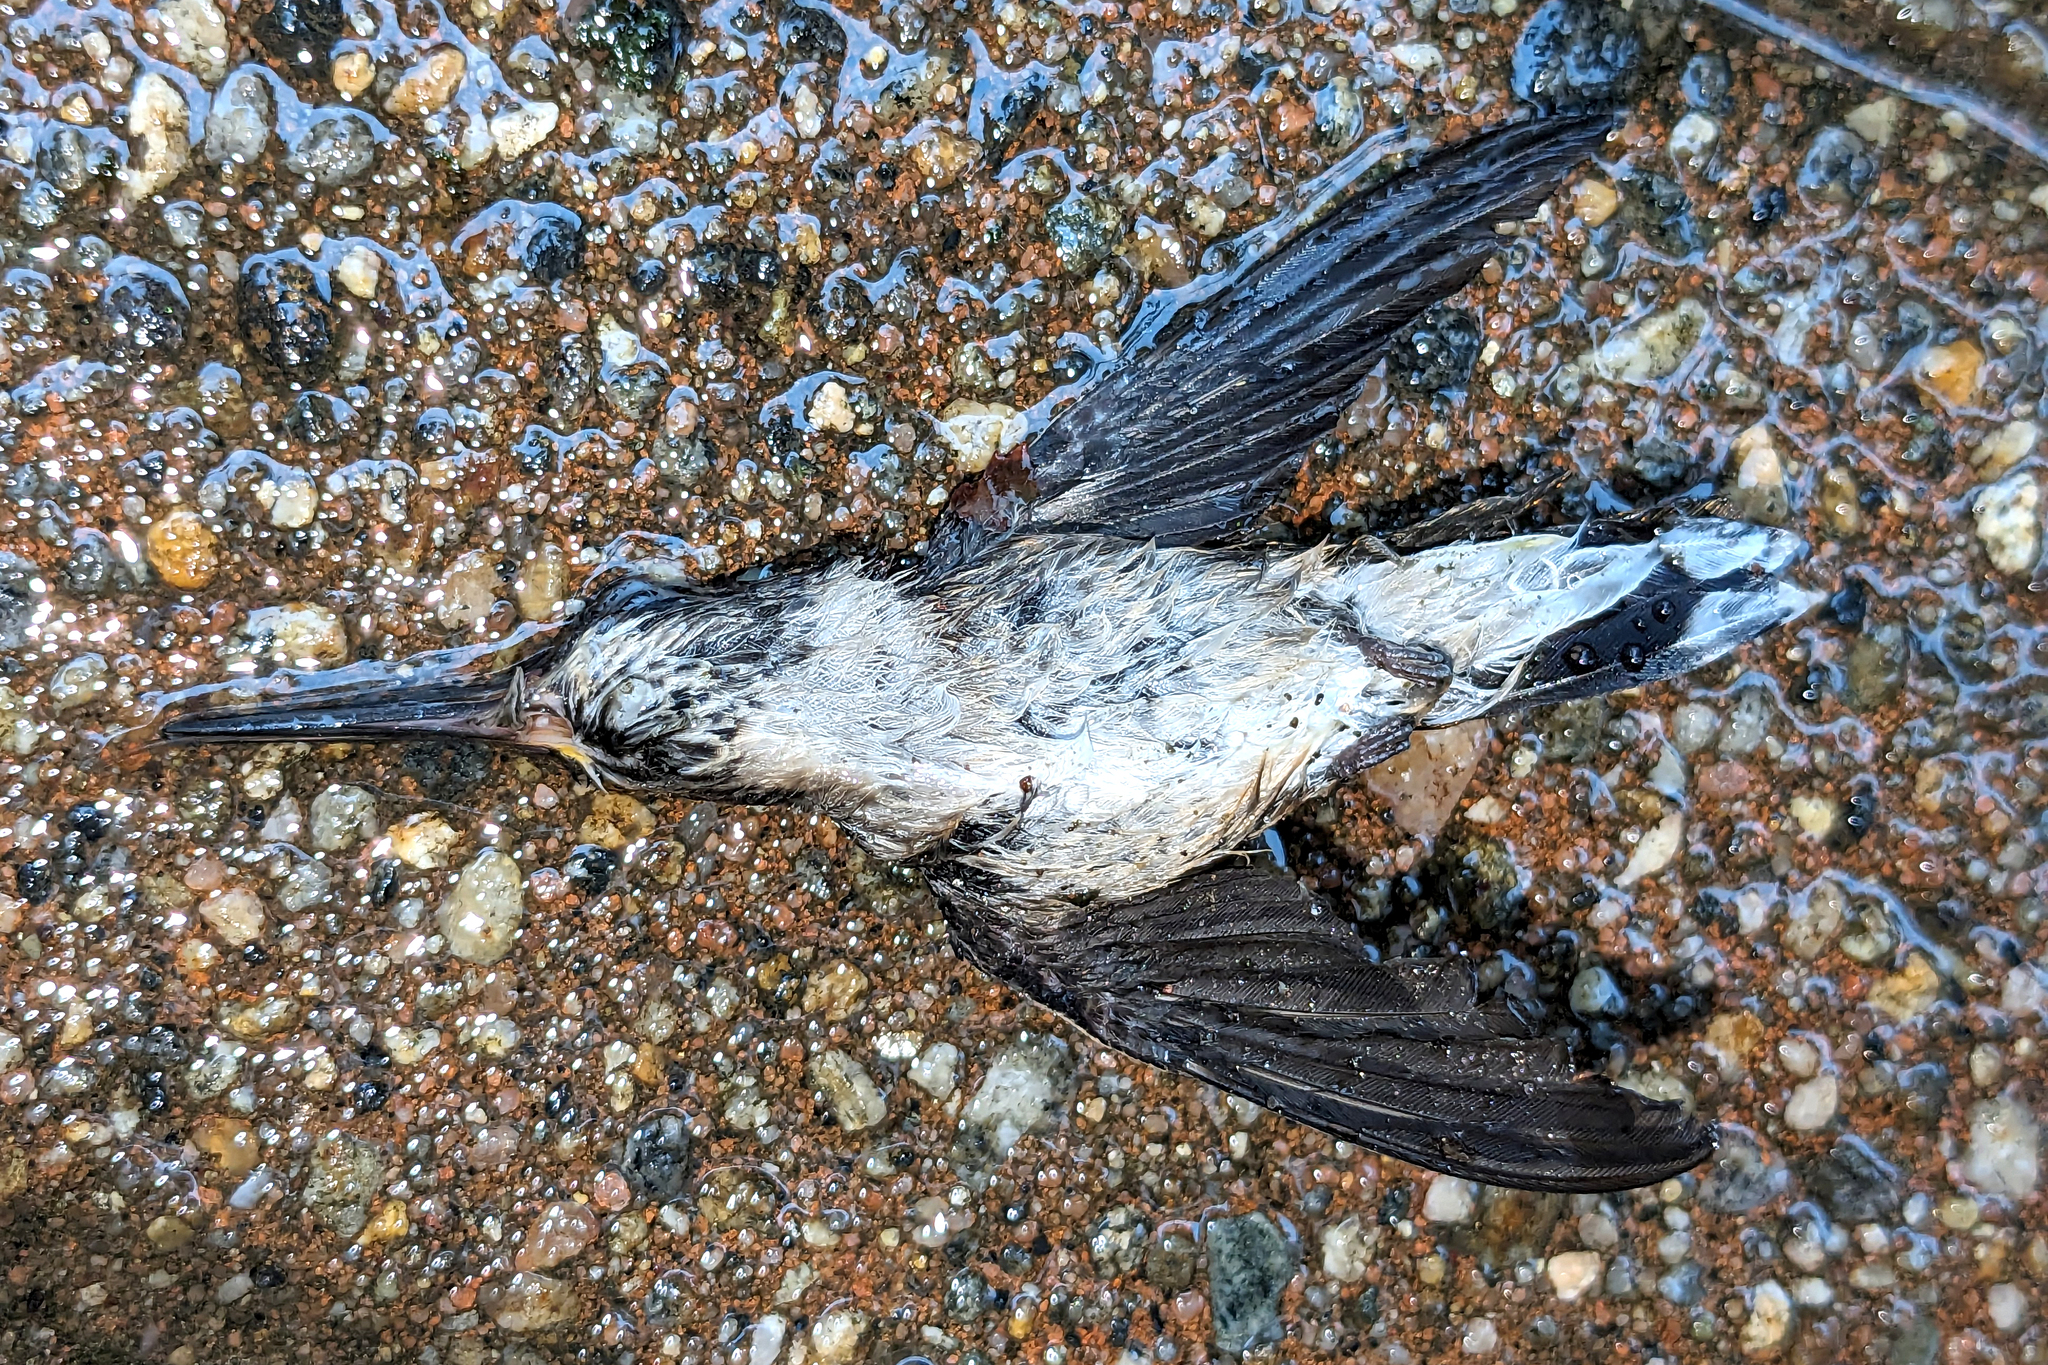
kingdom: Animalia
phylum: Chordata
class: Aves
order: Apodiformes
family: Trochilidae
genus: Archilochus
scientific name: Archilochus colubris
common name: Ruby-throated hummingbird
